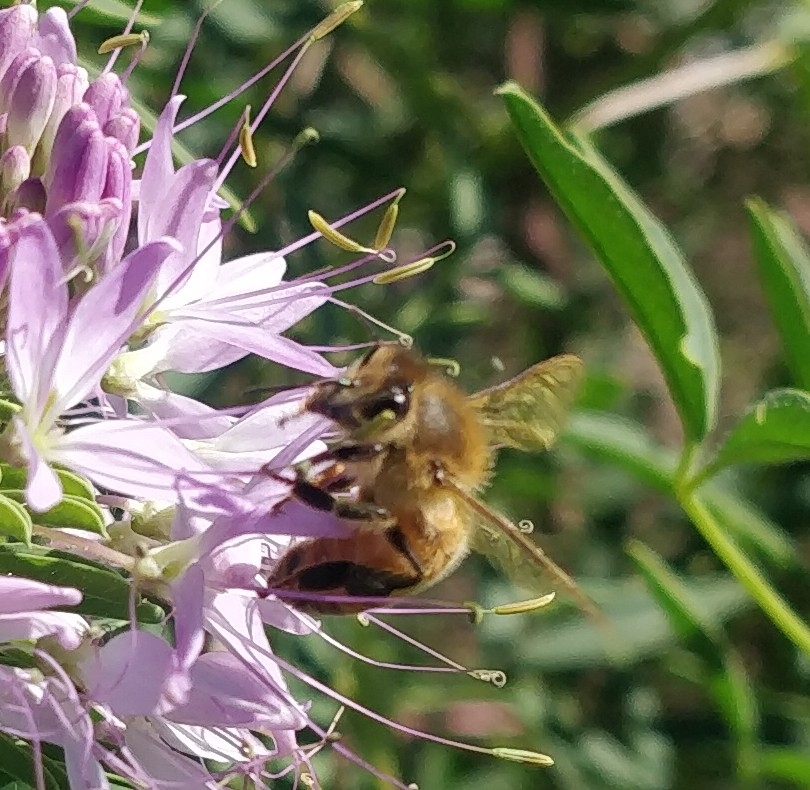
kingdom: Animalia
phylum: Arthropoda
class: Insecta
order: Hymenoptera
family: Apidae
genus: Apis
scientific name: Apis mellifera
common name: Honey bee
